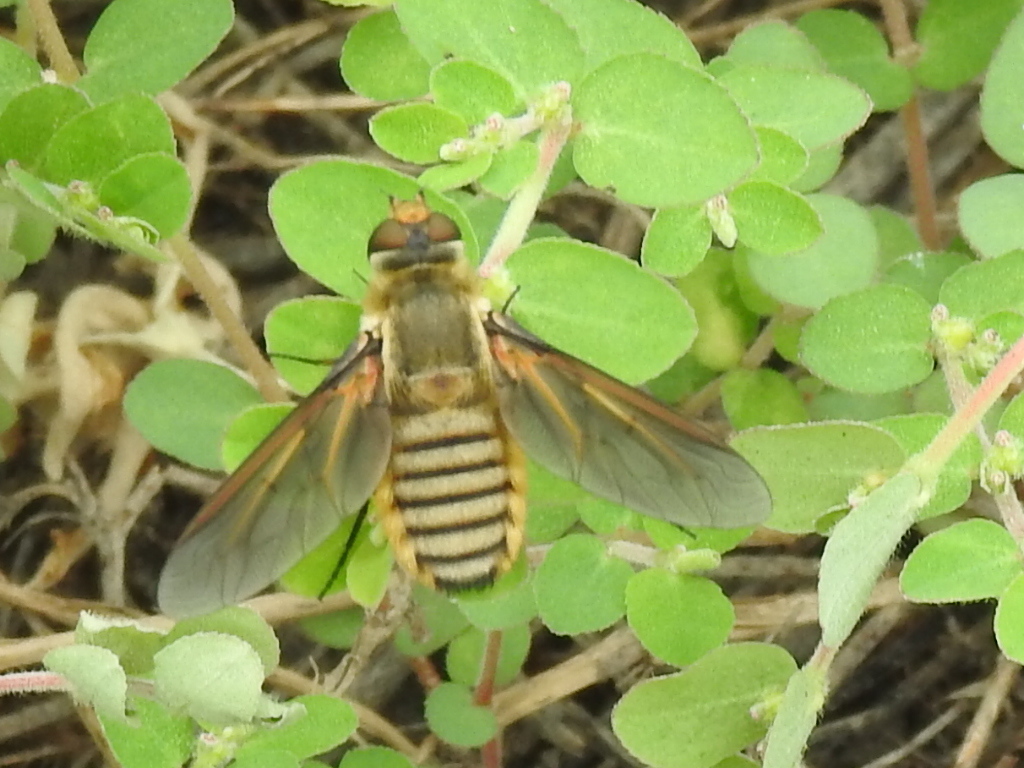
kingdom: Animalia
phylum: Arthropoda
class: Insecta
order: Diptera
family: Bombyliidae
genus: Poecilanthrax
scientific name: Poecilanthrax lucifer
